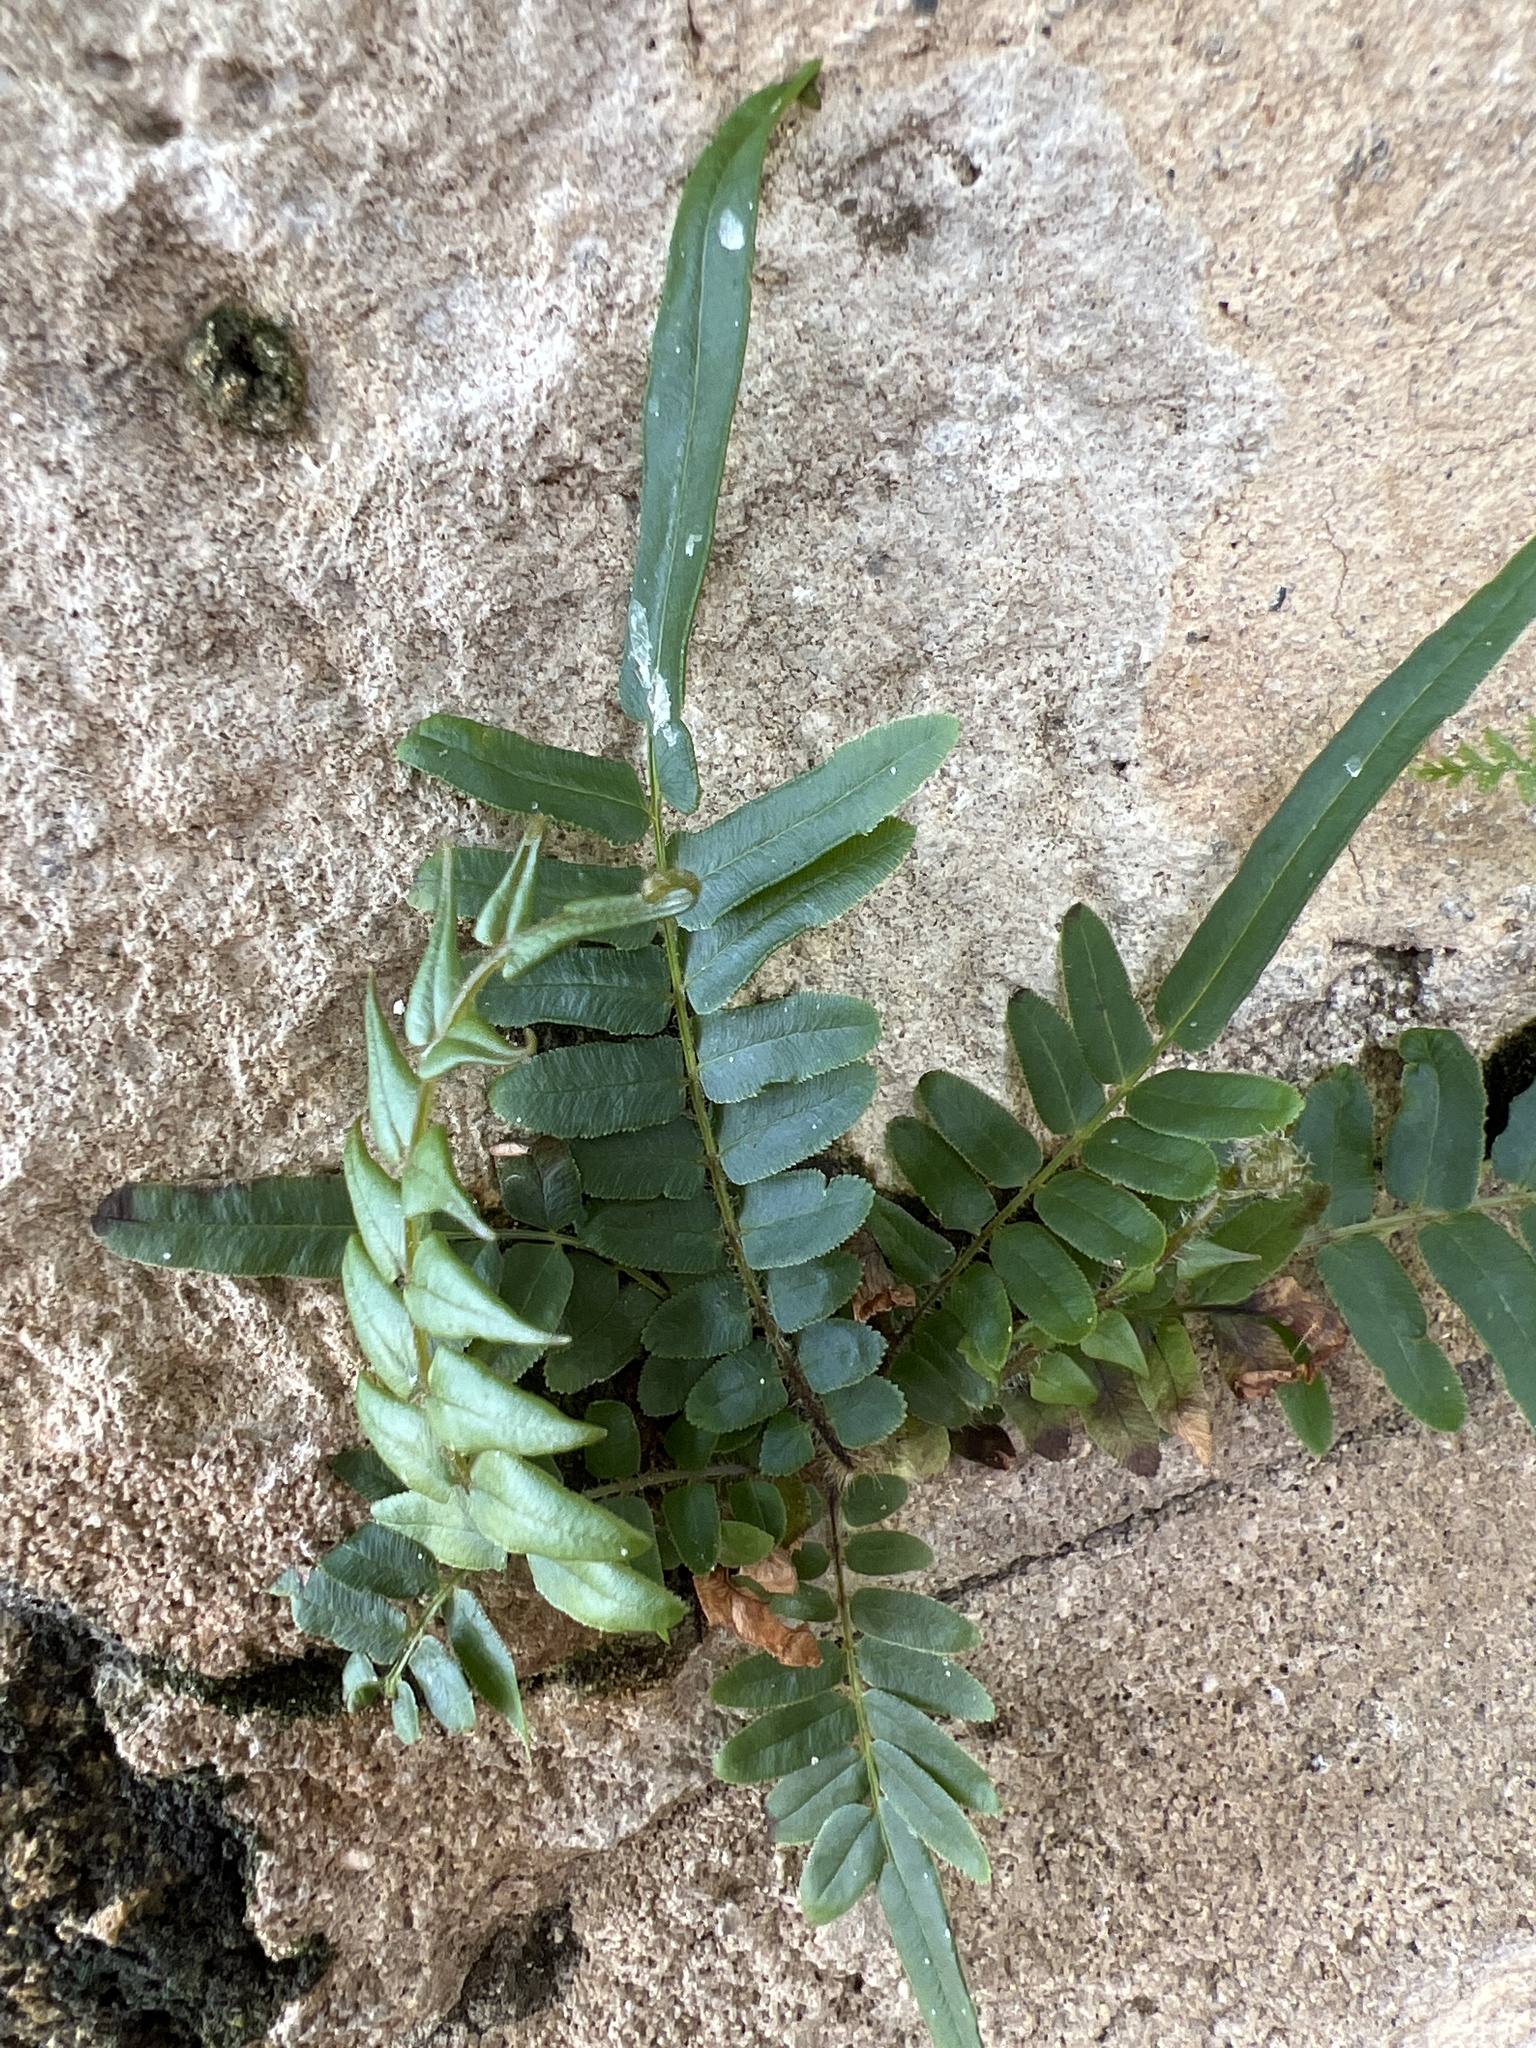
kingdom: Plantae
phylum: Tracheophyta
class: Polypodiopsida
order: Polypodiales
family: Pteridaceae
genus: Pteris
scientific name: Pteris vittata
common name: Ladder brake
